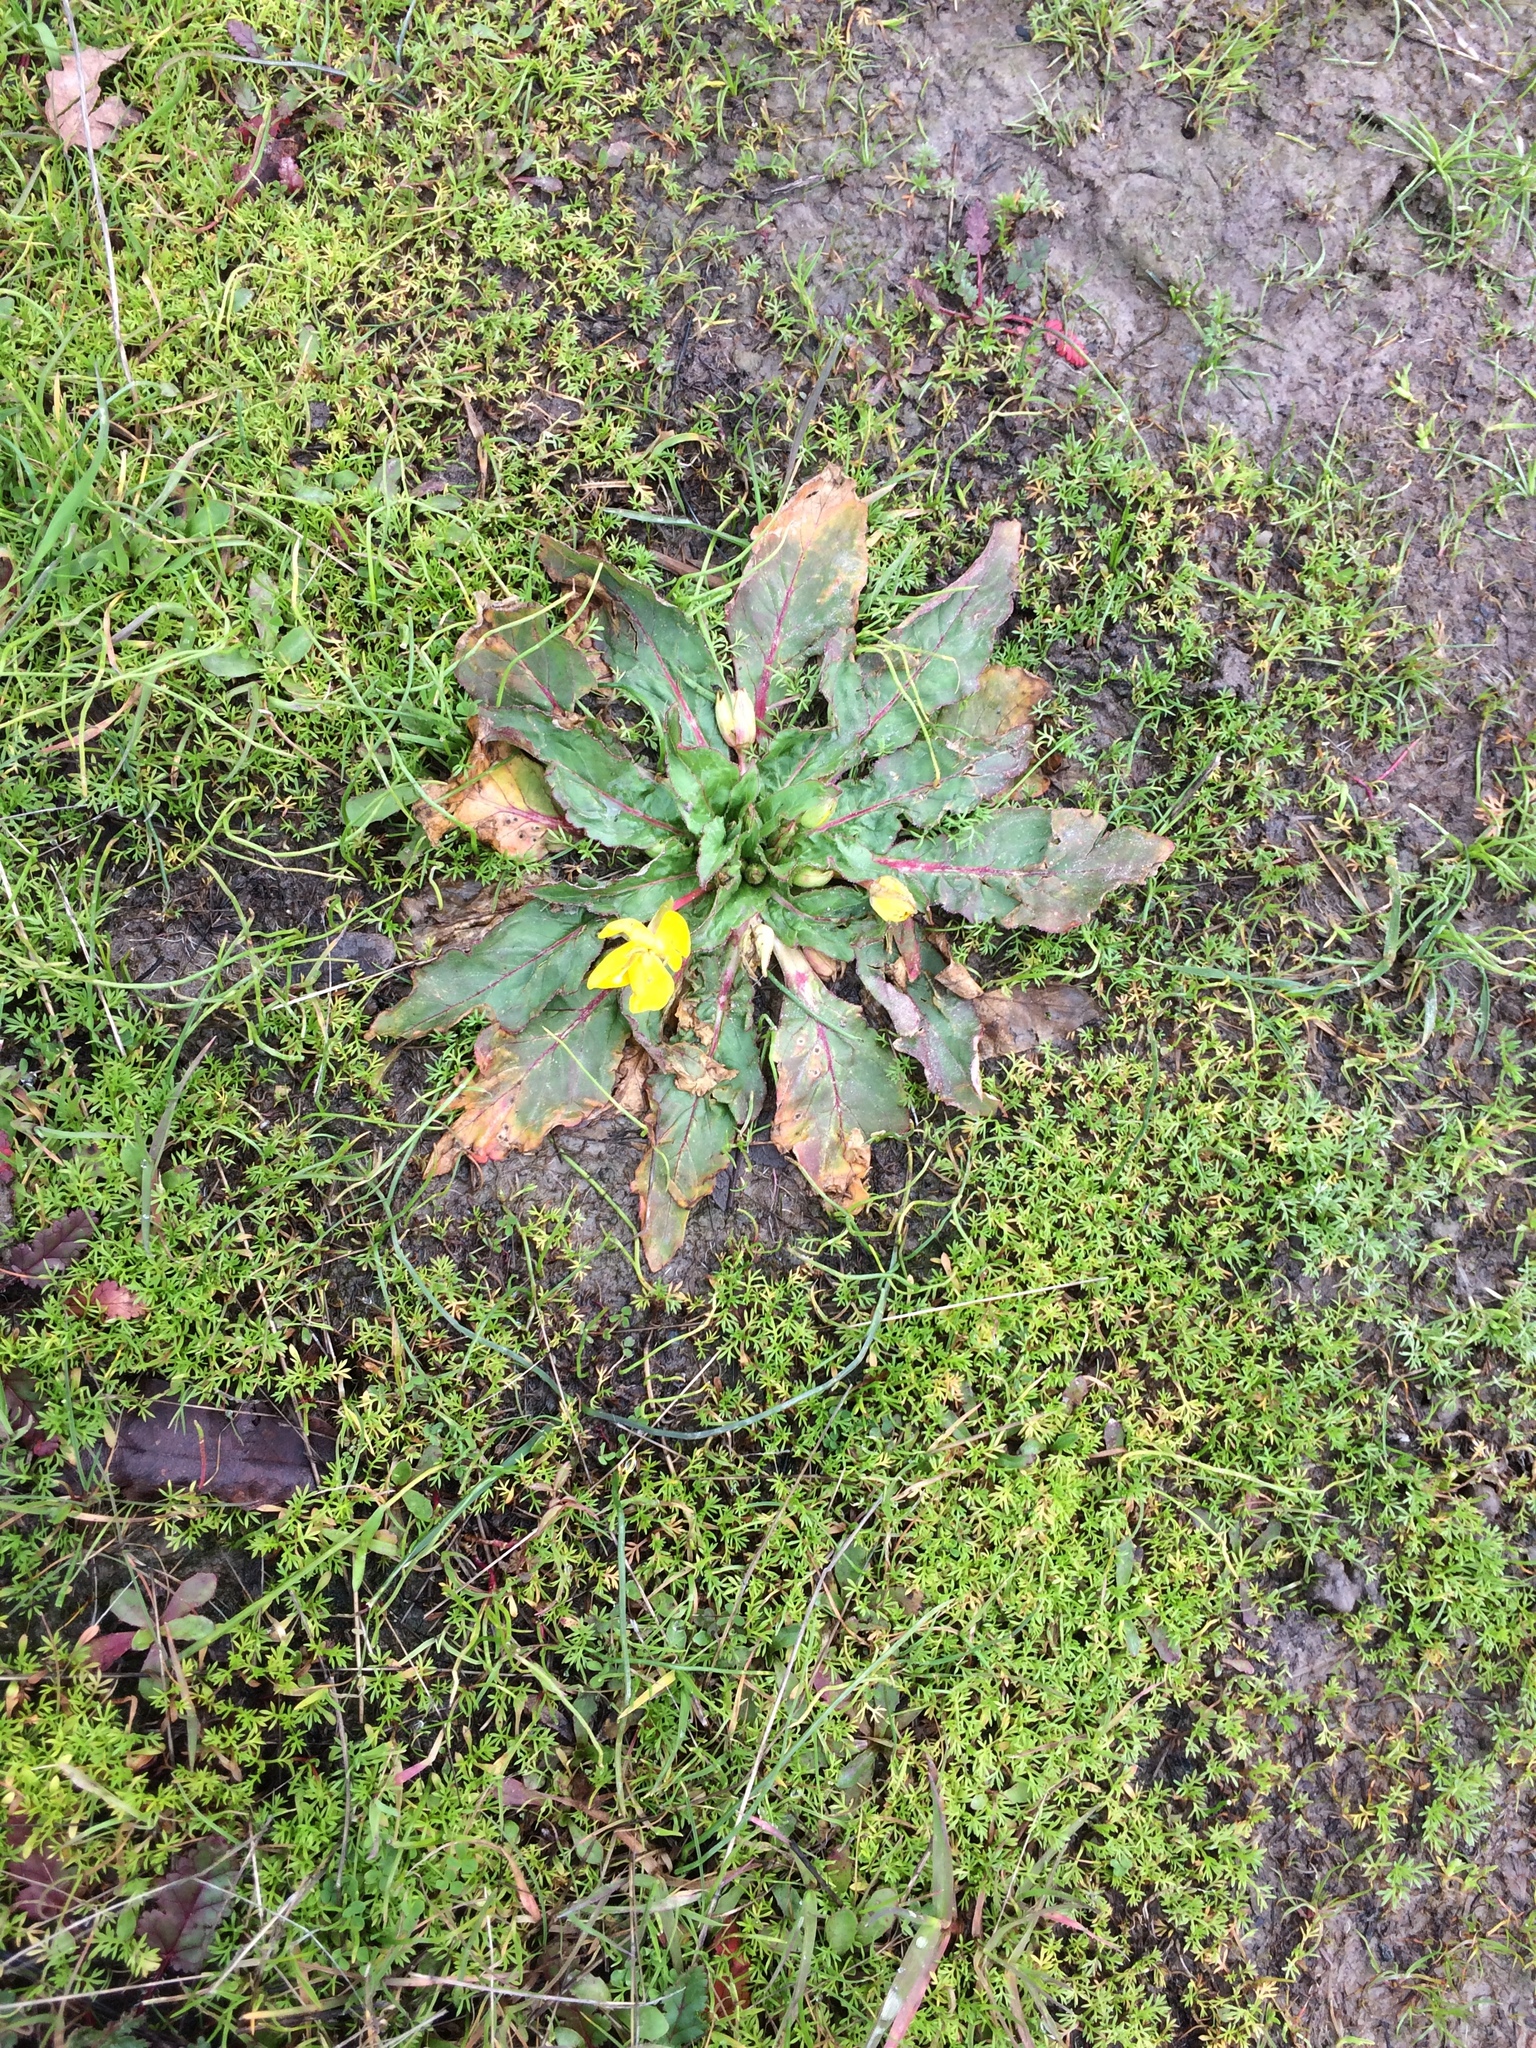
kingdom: Plantae
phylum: Tracheophyta
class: Magnoliopsida
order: Myrtales
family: Onagraceae
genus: Taraxia
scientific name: Taraxia ovata
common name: Goldeneggs
